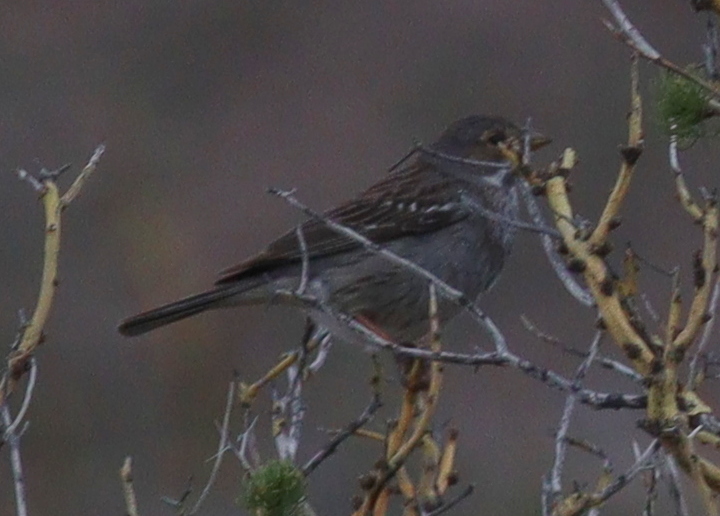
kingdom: Animalia
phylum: Chordata
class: Aves
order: Passeriformes
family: Thraupidae
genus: Rhopospina
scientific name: Rhopospina fruticeti
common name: Mourning sierra finch
